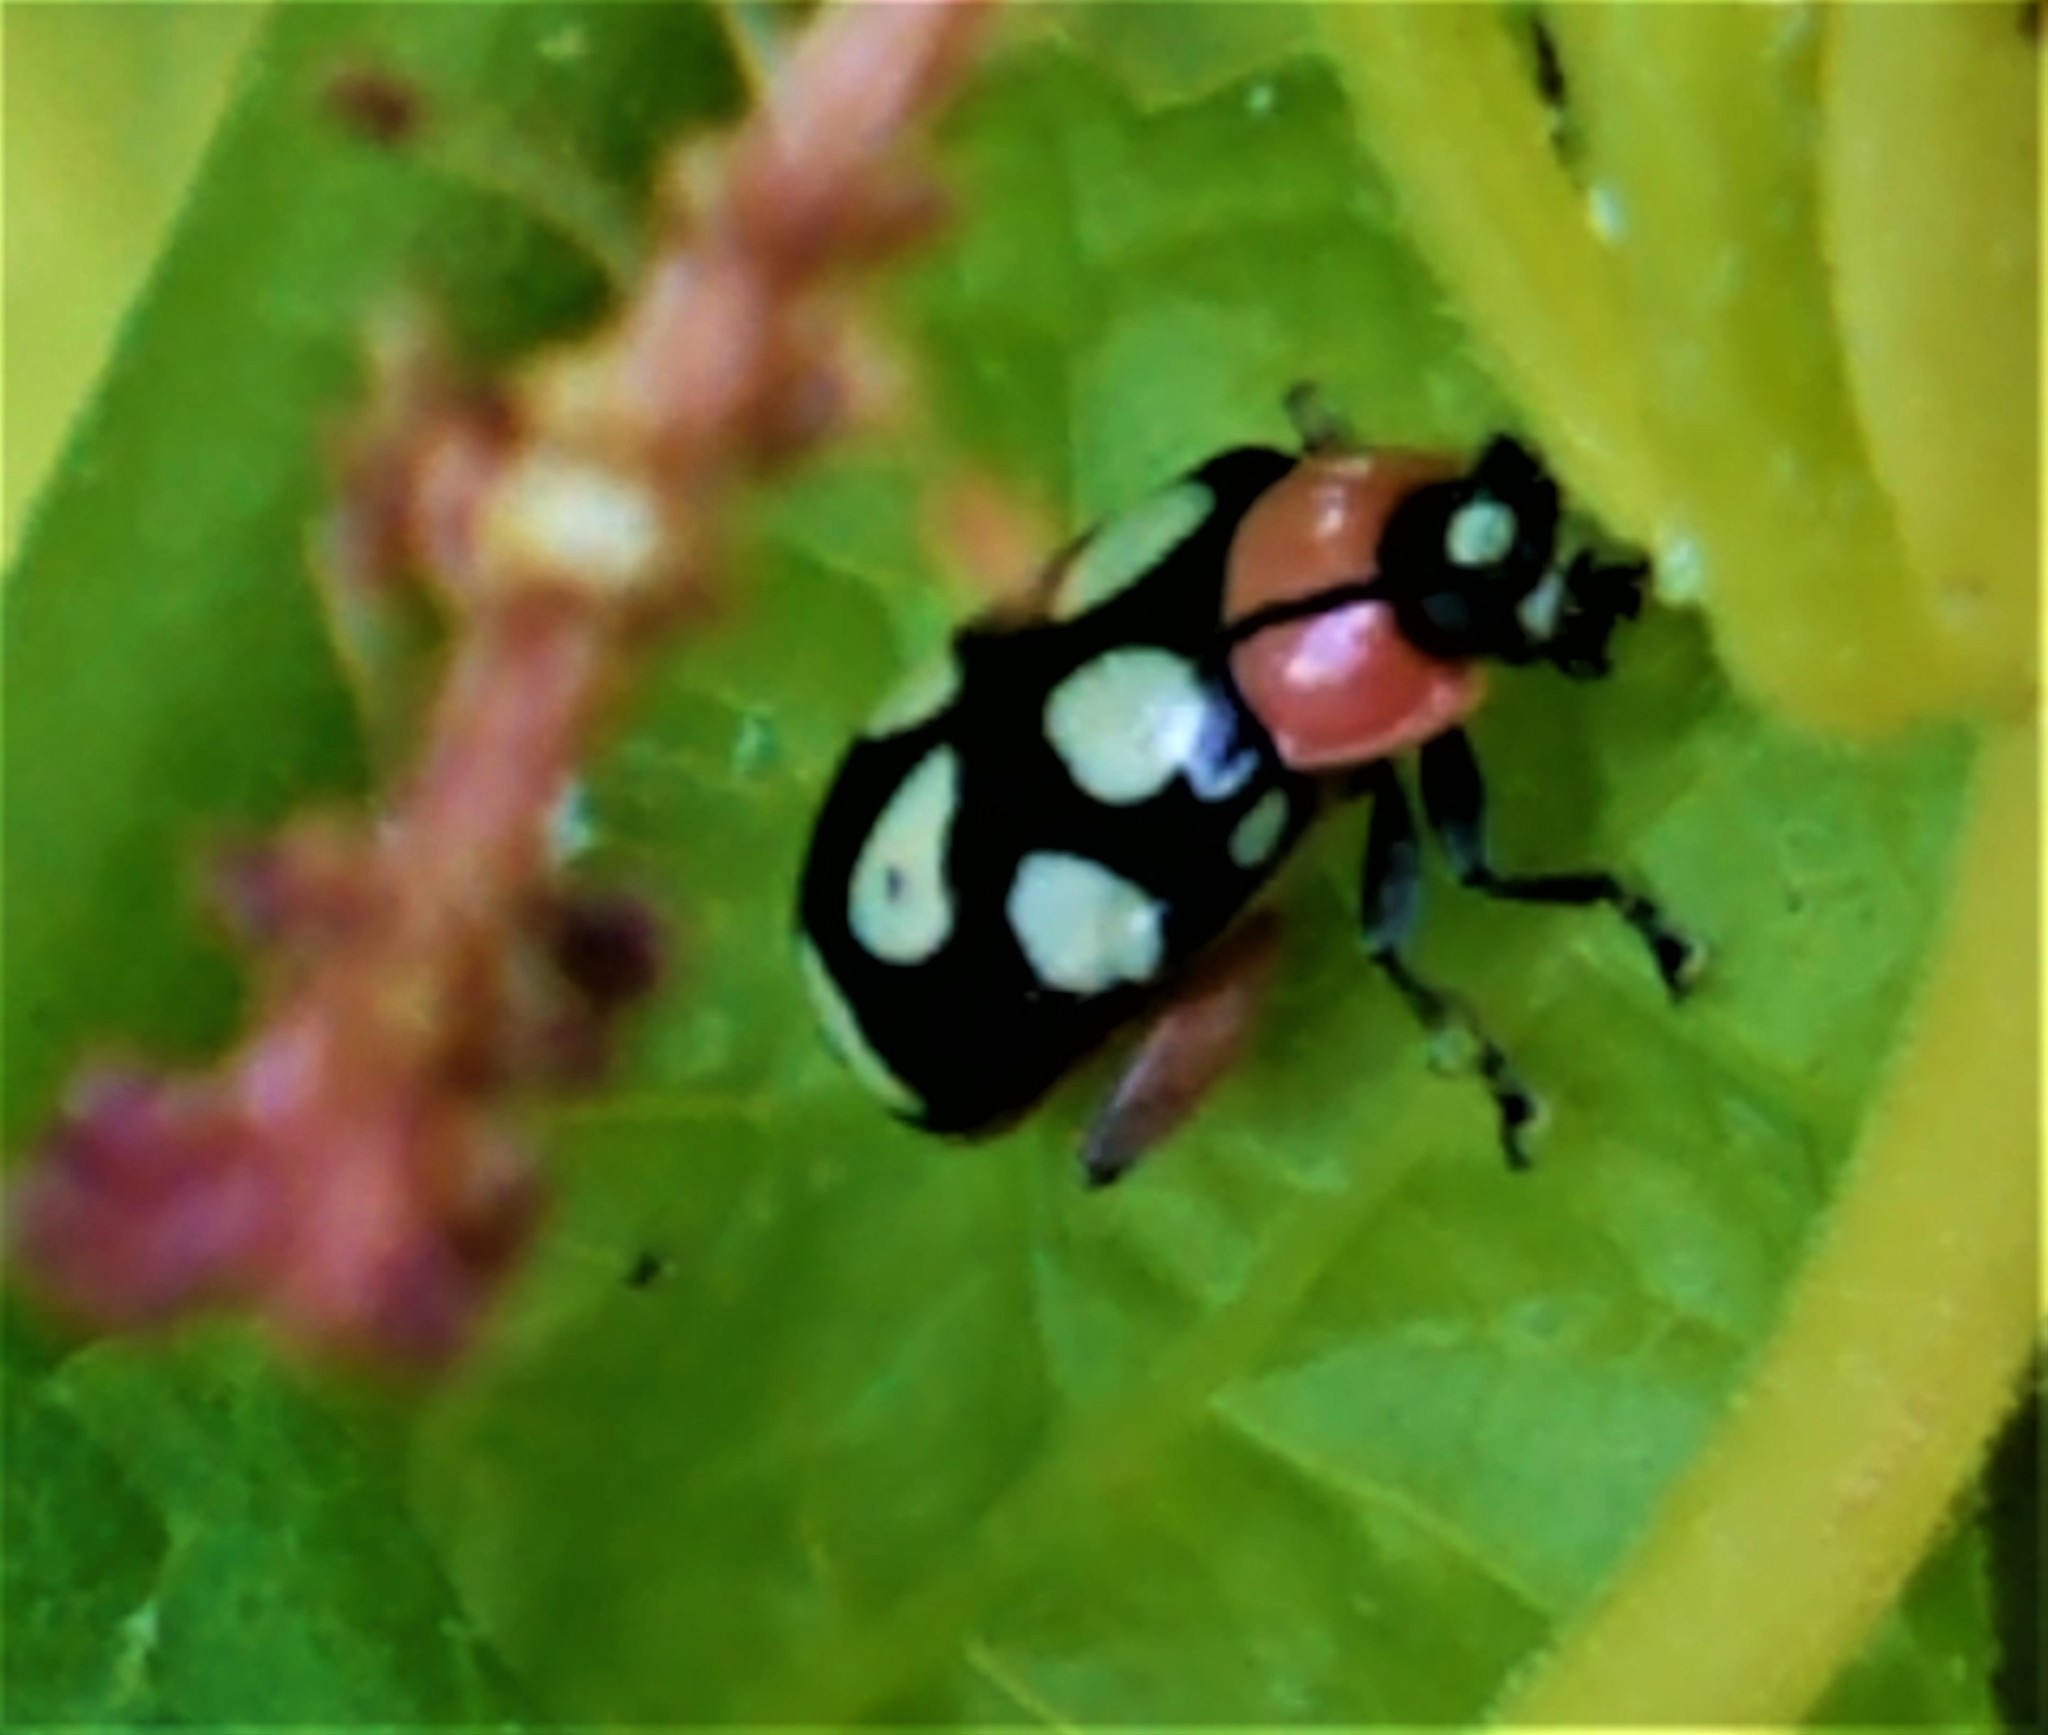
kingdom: Animalia
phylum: Arthropoda
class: Insecta
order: Coleoptera
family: Chrysomelidae
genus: Omophoita
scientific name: Omophoita cyanipennis
